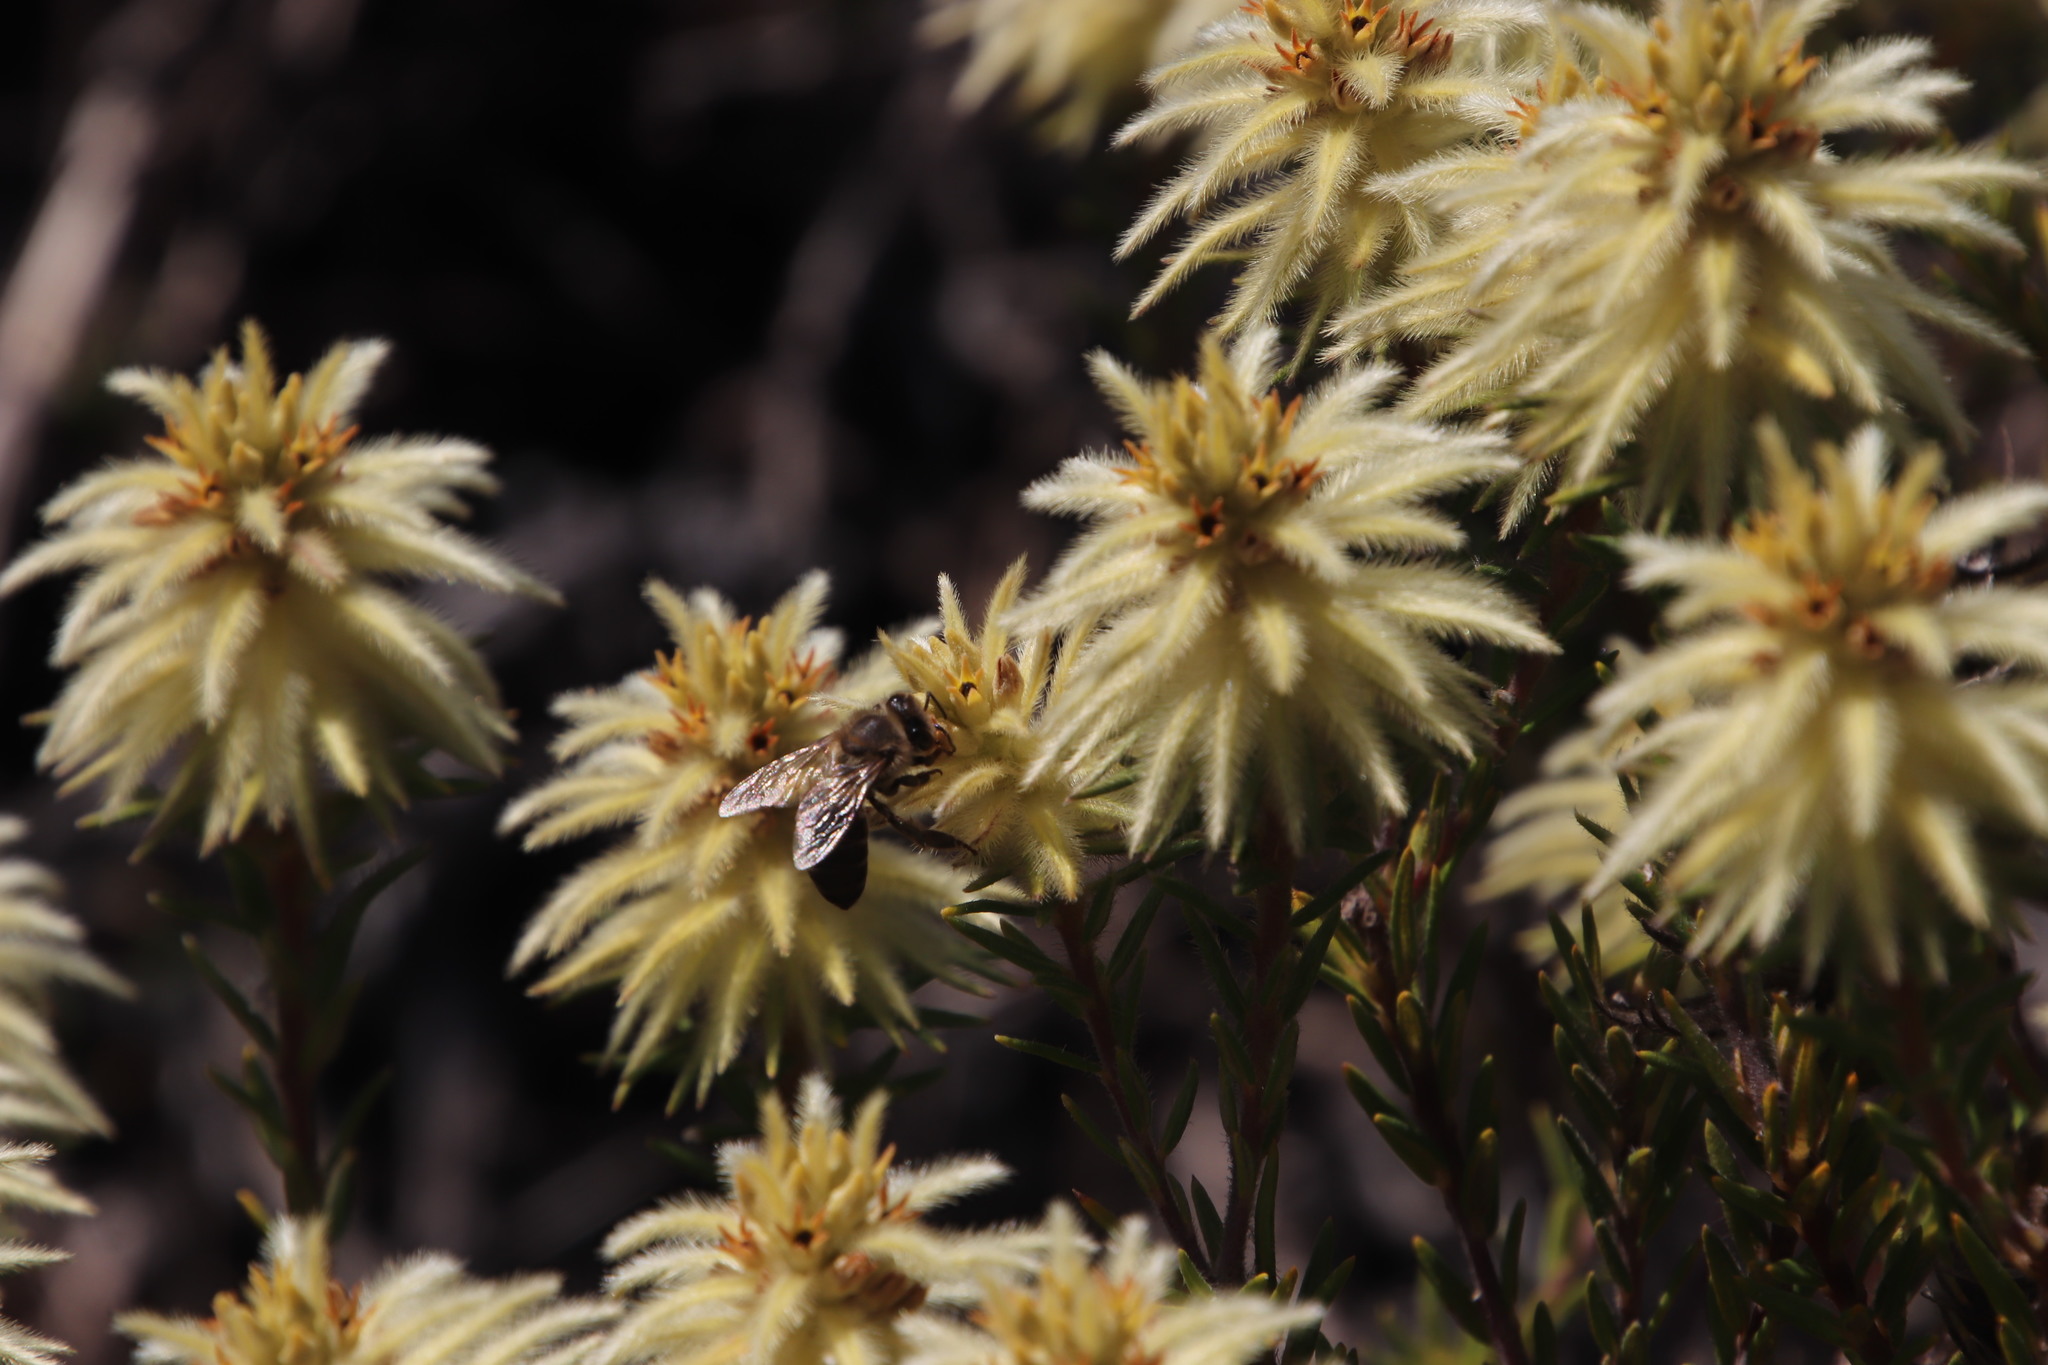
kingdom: Animalia
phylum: Arthropoda
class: Insecta
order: Hymenoptera
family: Apidae
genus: Apis
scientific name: Apis mellifera
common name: Honey bee
